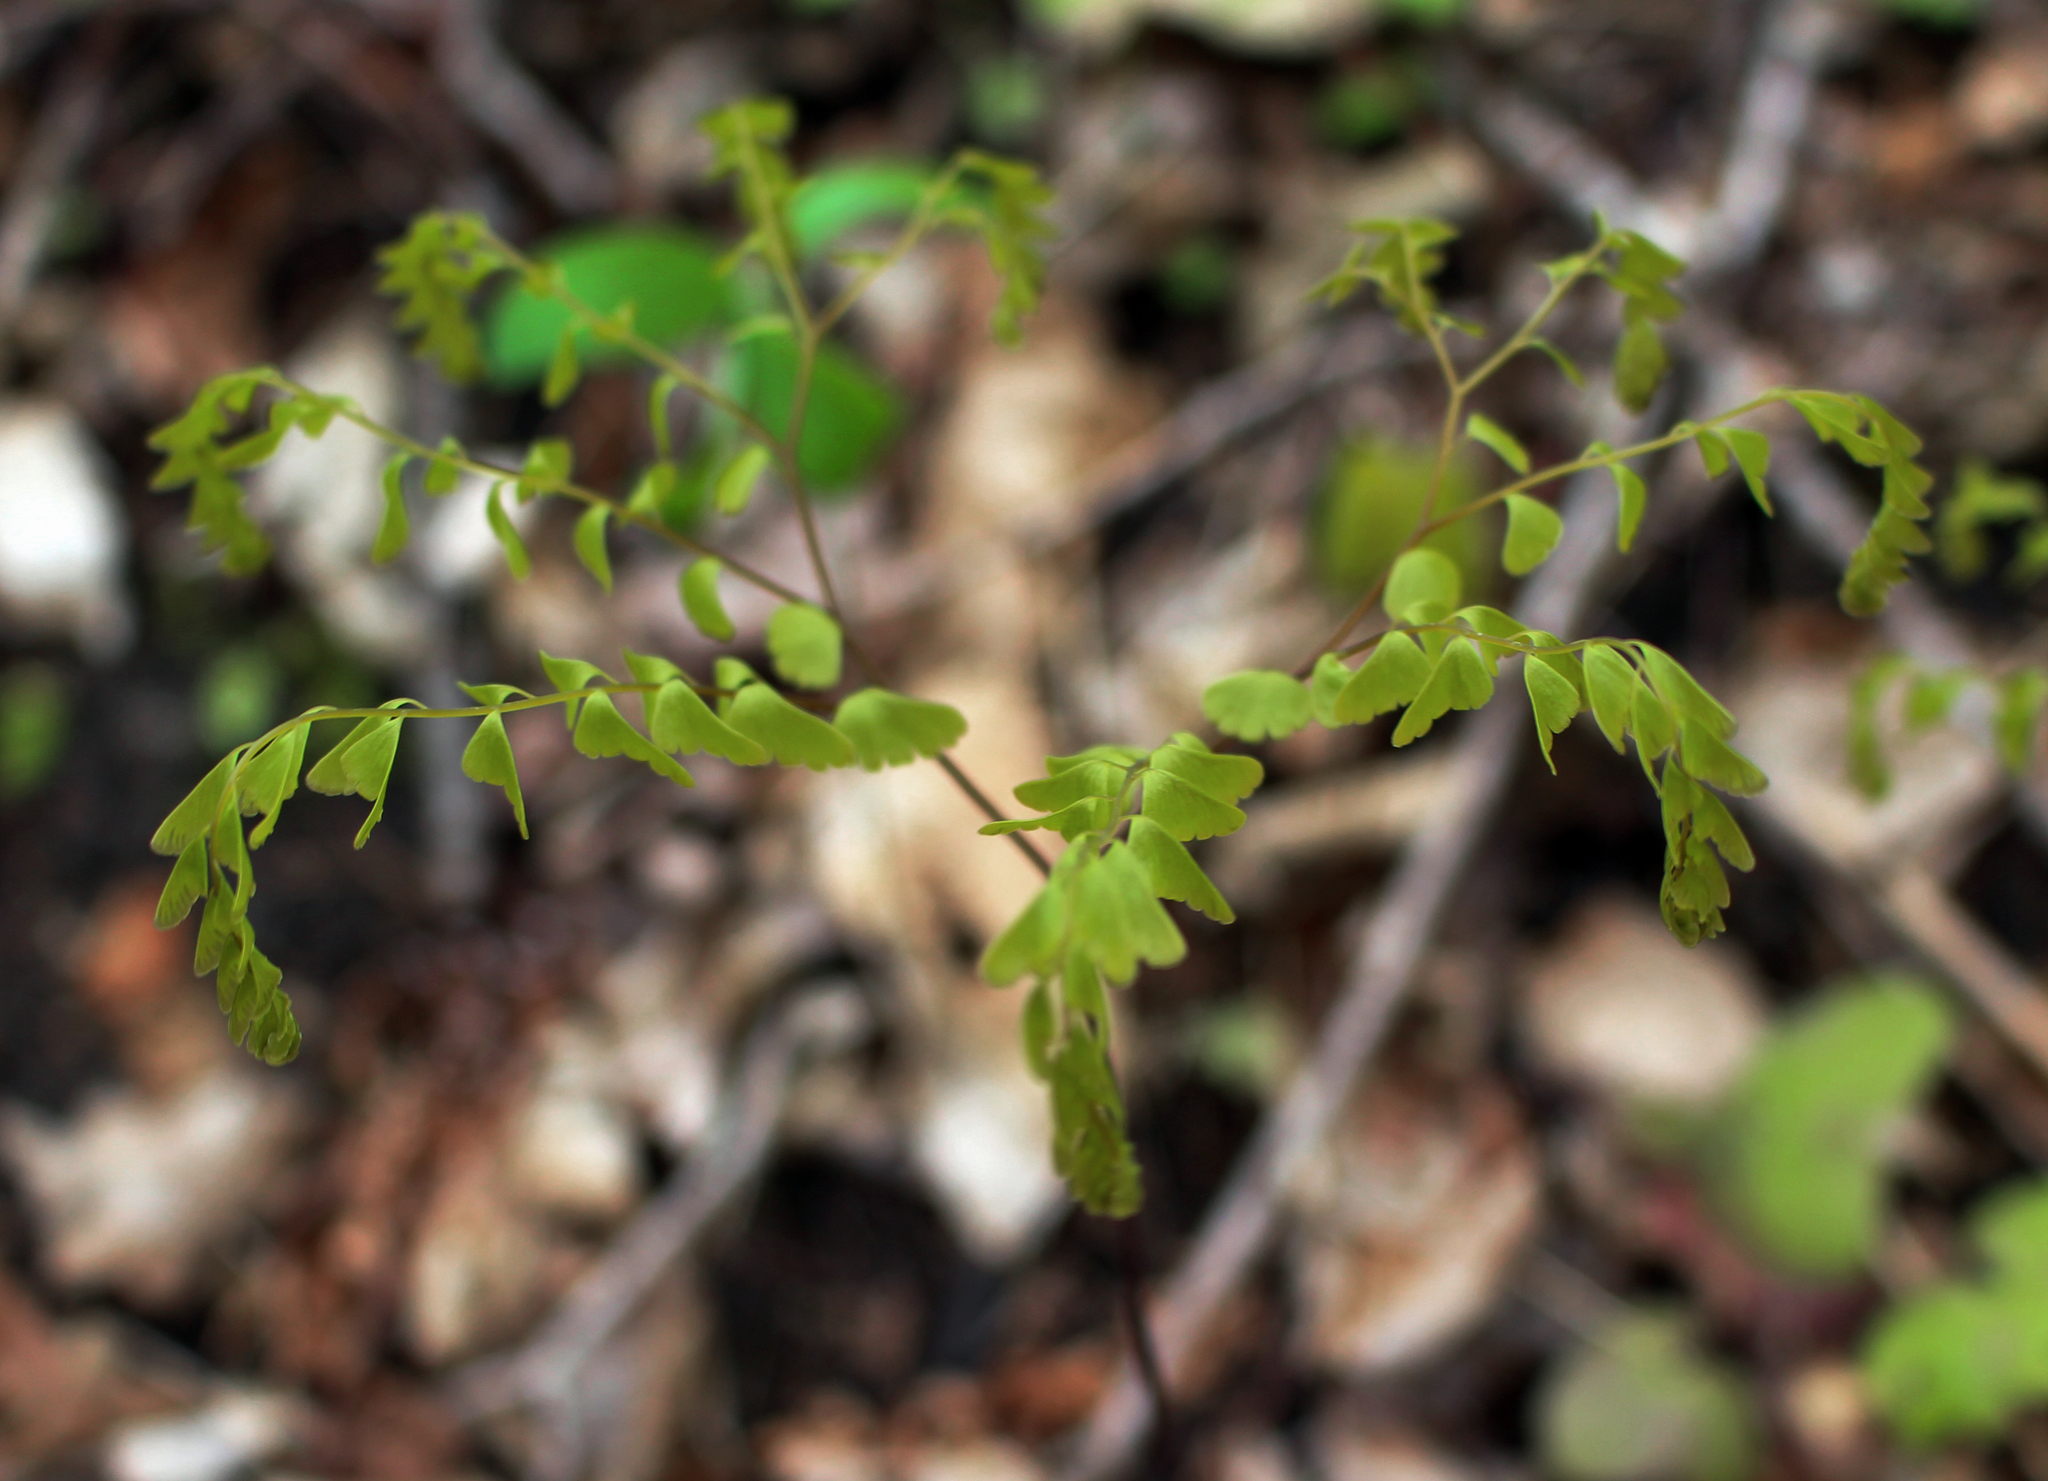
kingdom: Plantae
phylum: Tracheophyta
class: Polypodiopsida
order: Polypodiales
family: Pteridaceae
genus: Adiantum
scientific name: Adiantum pedatum
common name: Five-finger fern
